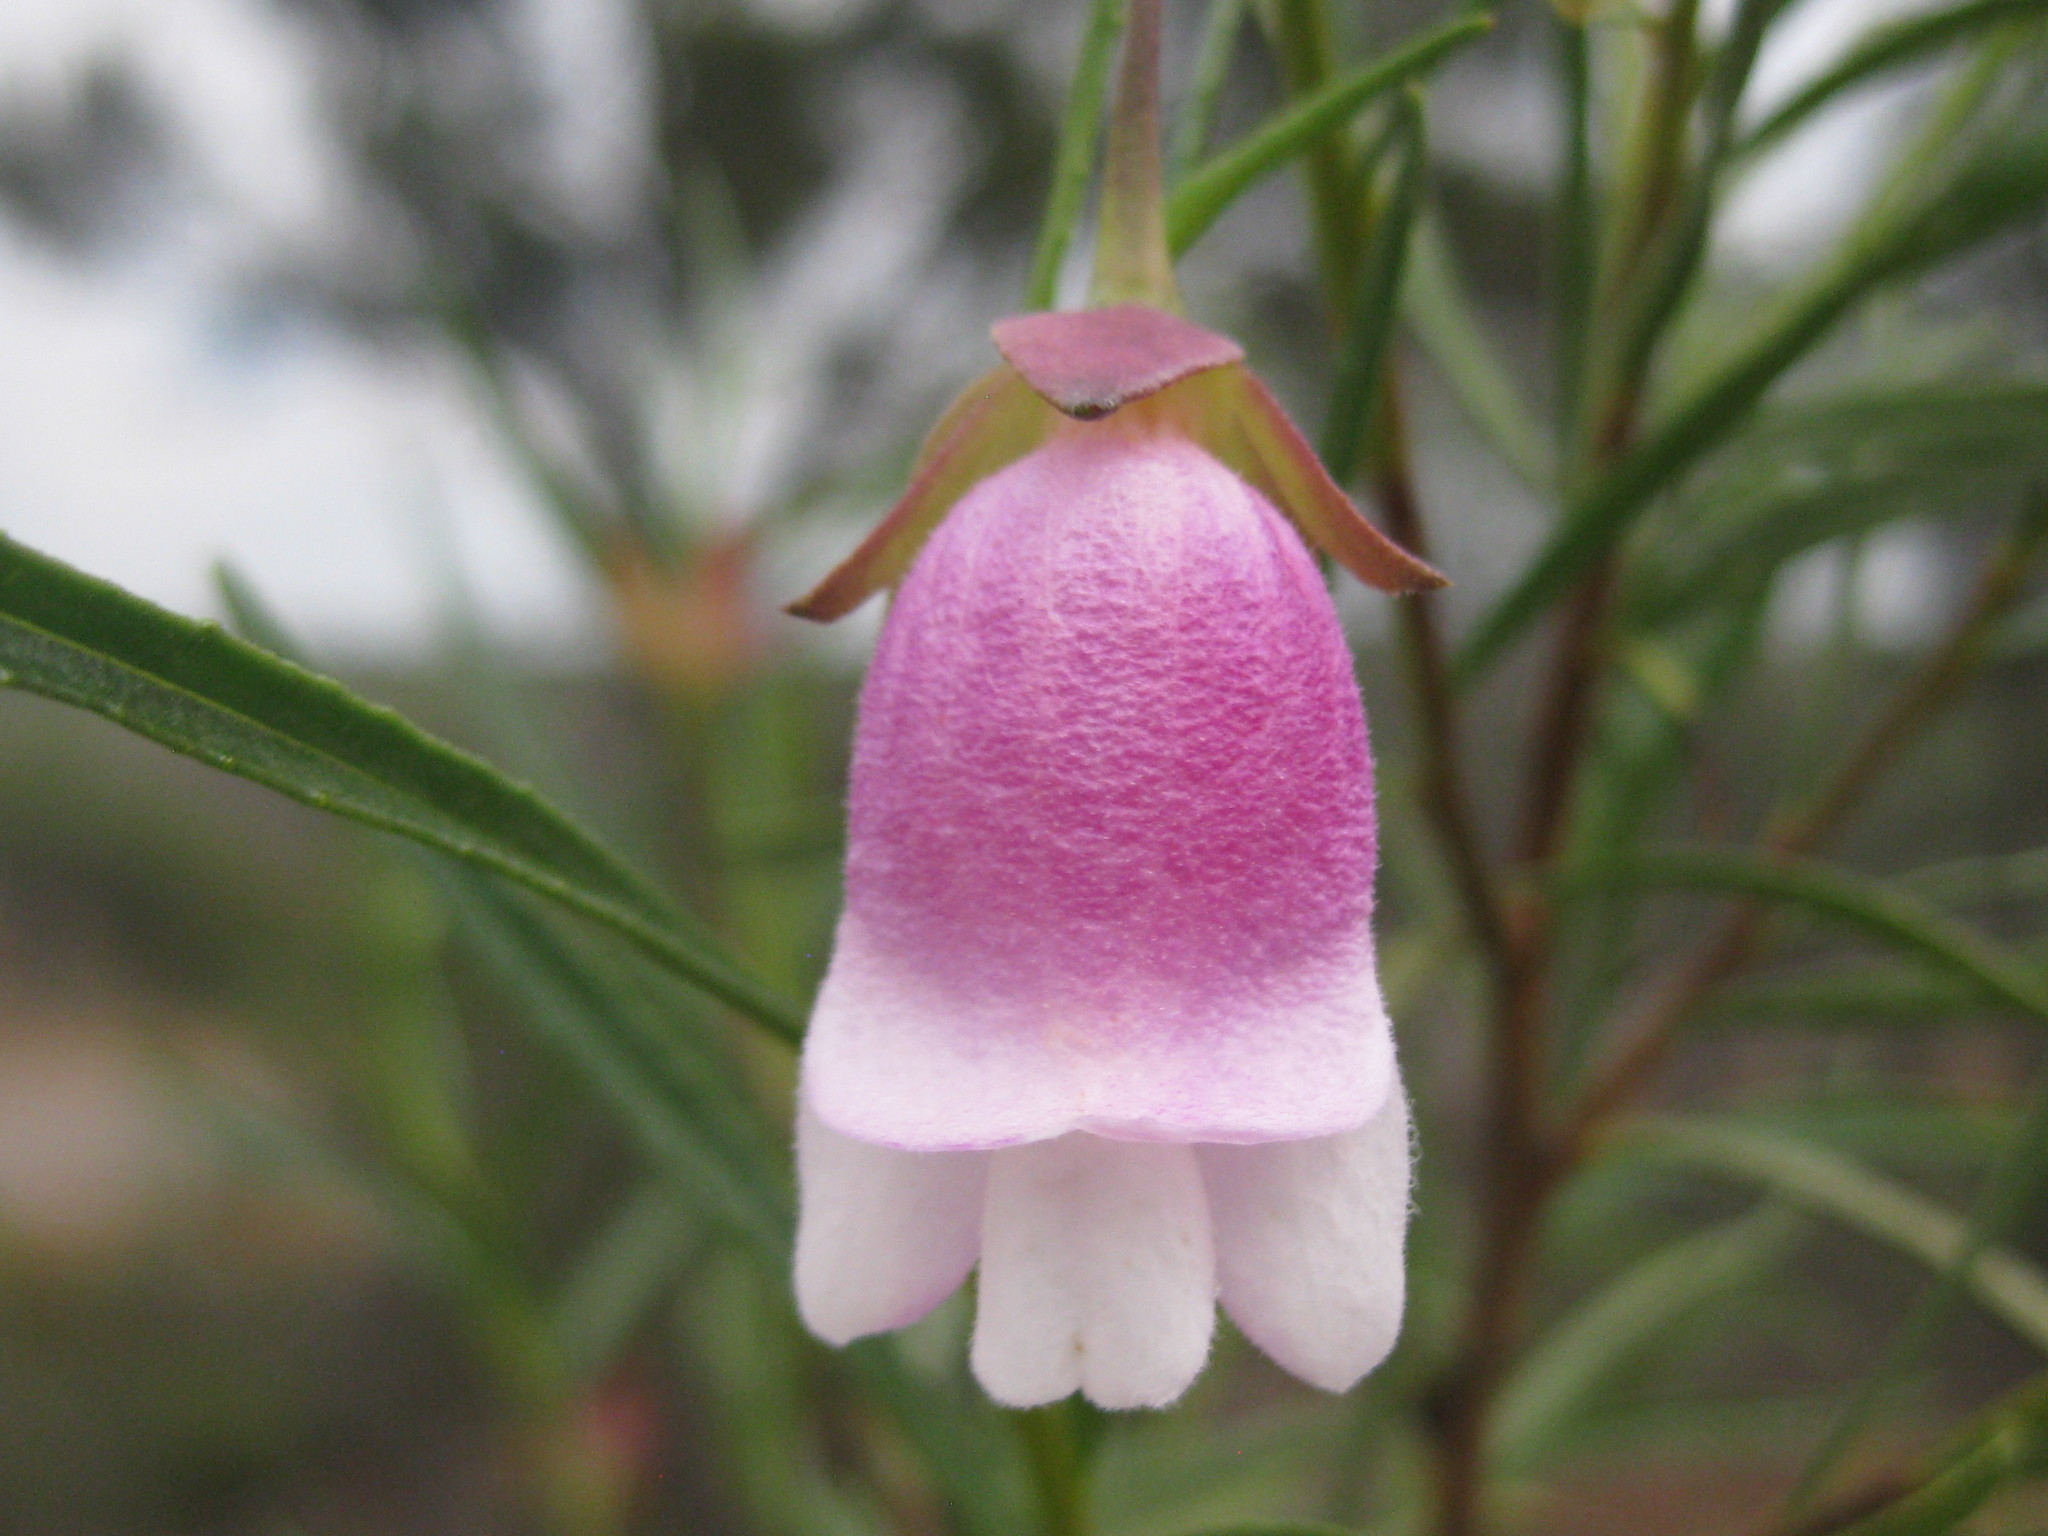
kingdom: Plantae
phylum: Tracheophyta
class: Magnoliopsida
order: Lamiales
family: Scrophulariaceae
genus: Eremophila
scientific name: Eremophila clarkei
